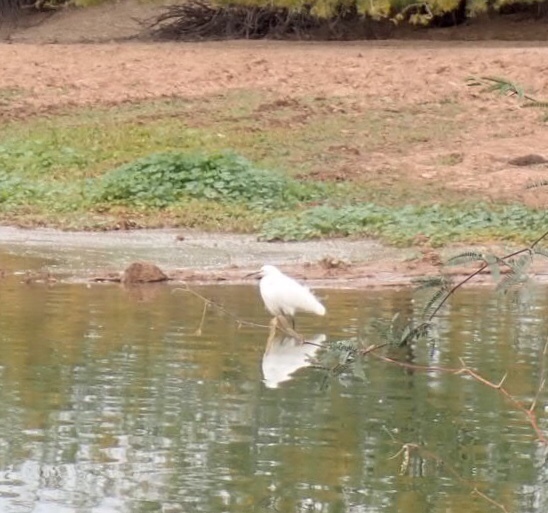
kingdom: Animalia
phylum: Chordata
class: Aves
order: Pelecaniformes
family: Ardeidae
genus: Egretta
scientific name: Egretta thula
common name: Snowy egret
